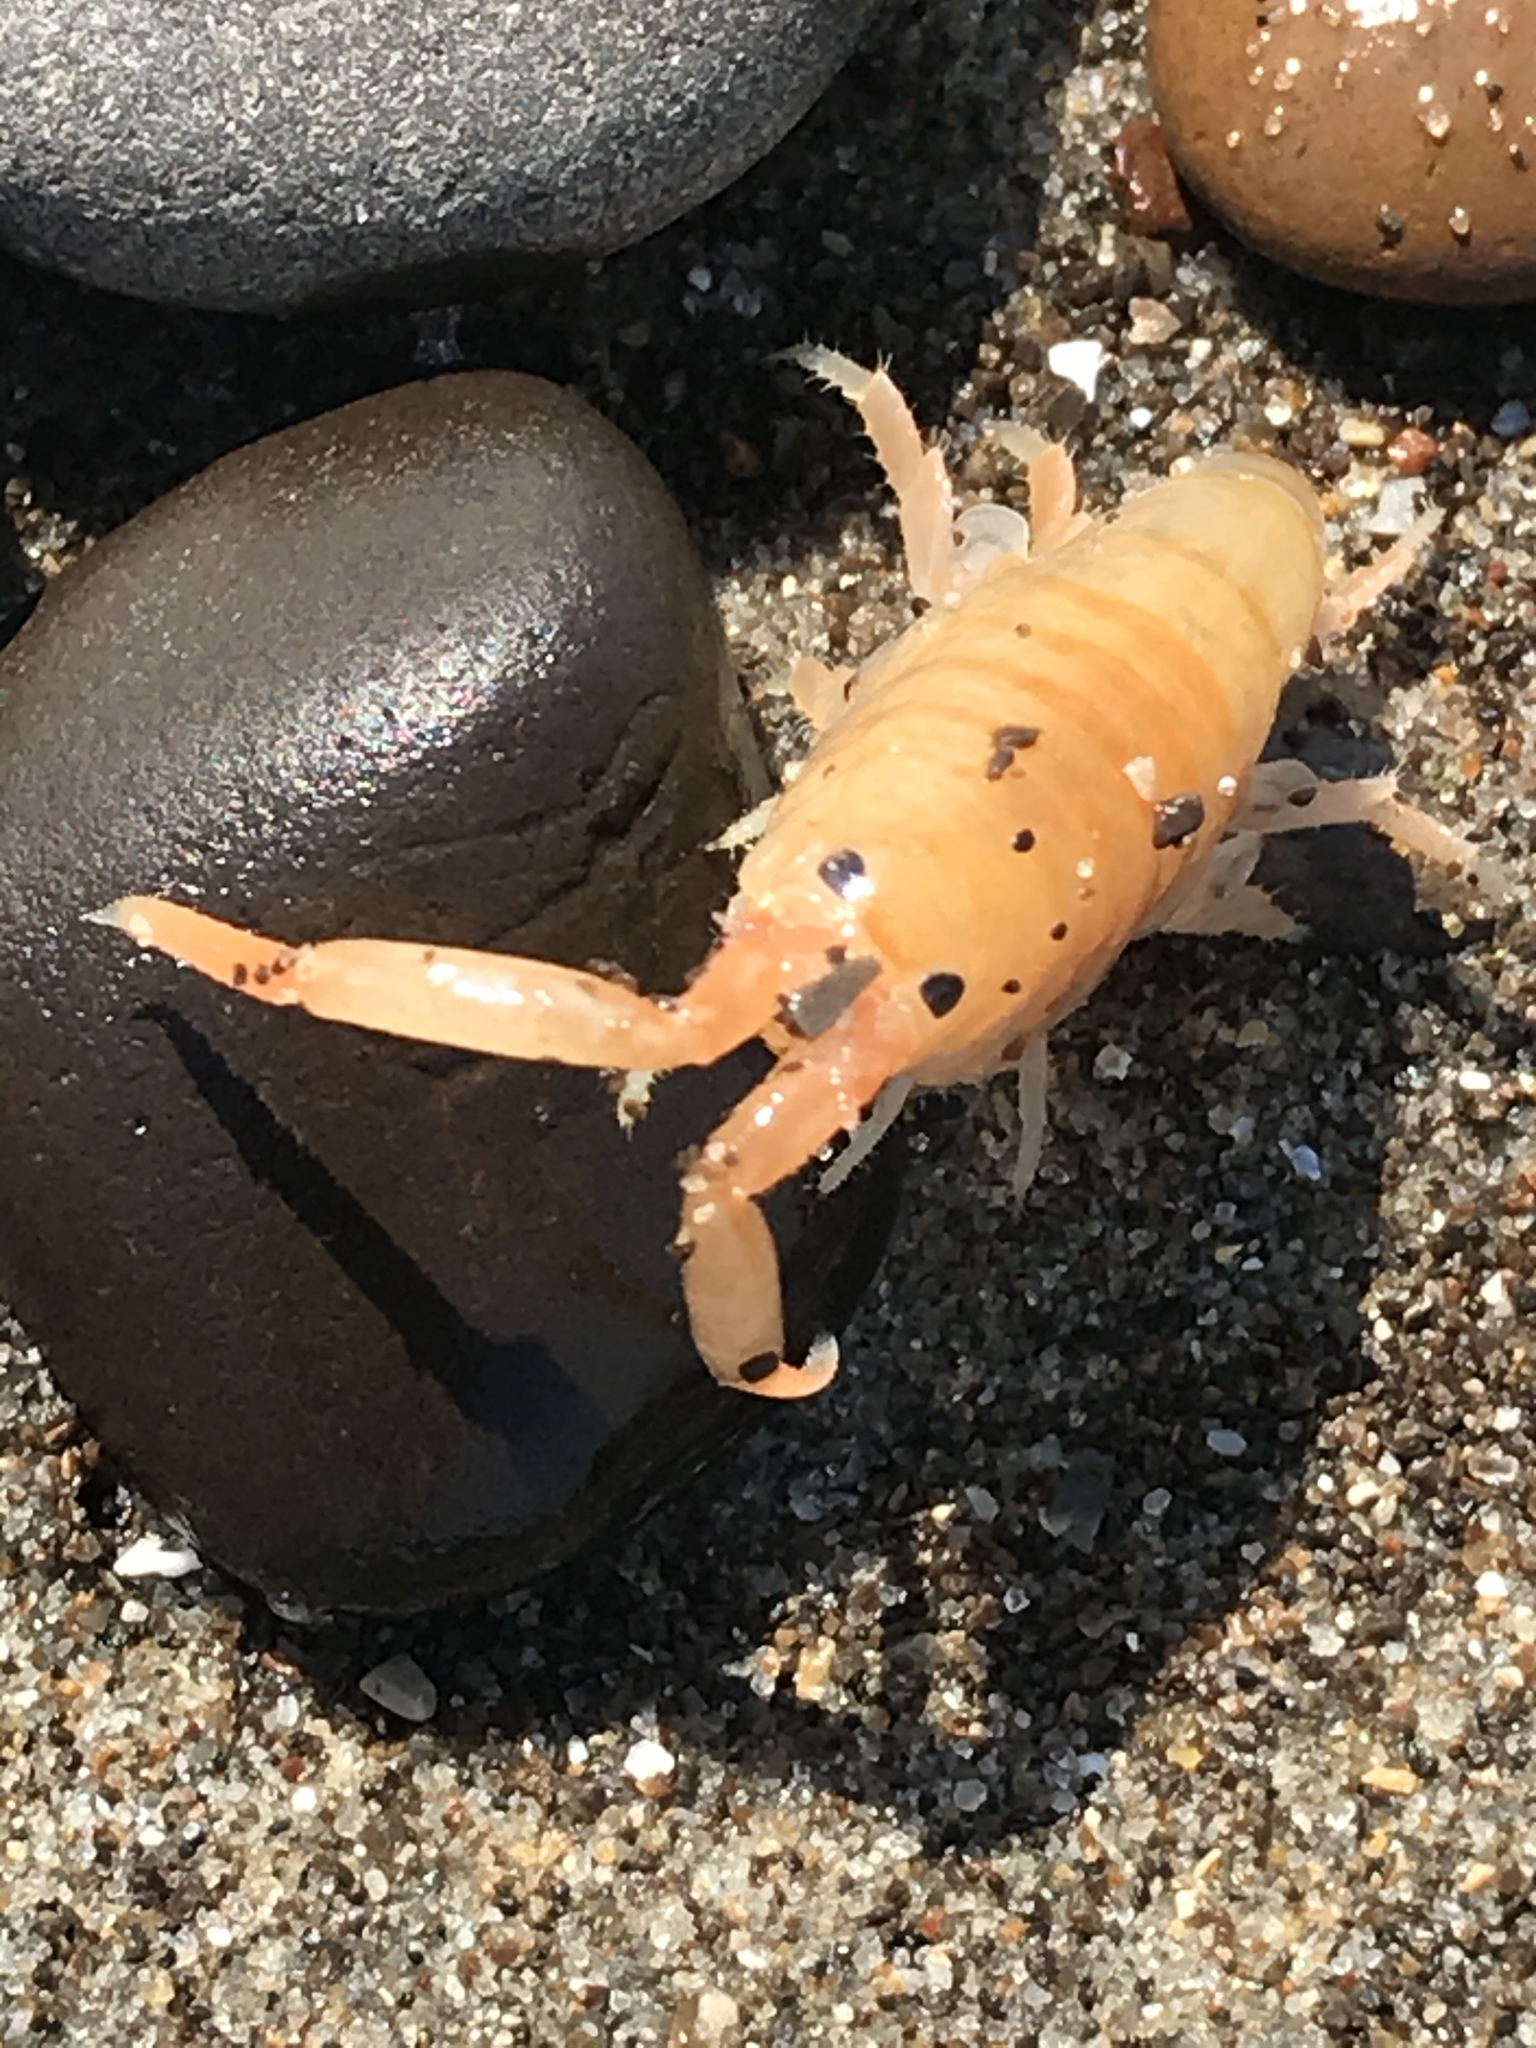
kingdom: Animalia
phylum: Arthropoda
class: Malacostraca
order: Amphipoda
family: Talitridae
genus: Megalorchestia
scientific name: Megalorchestia corniculata
